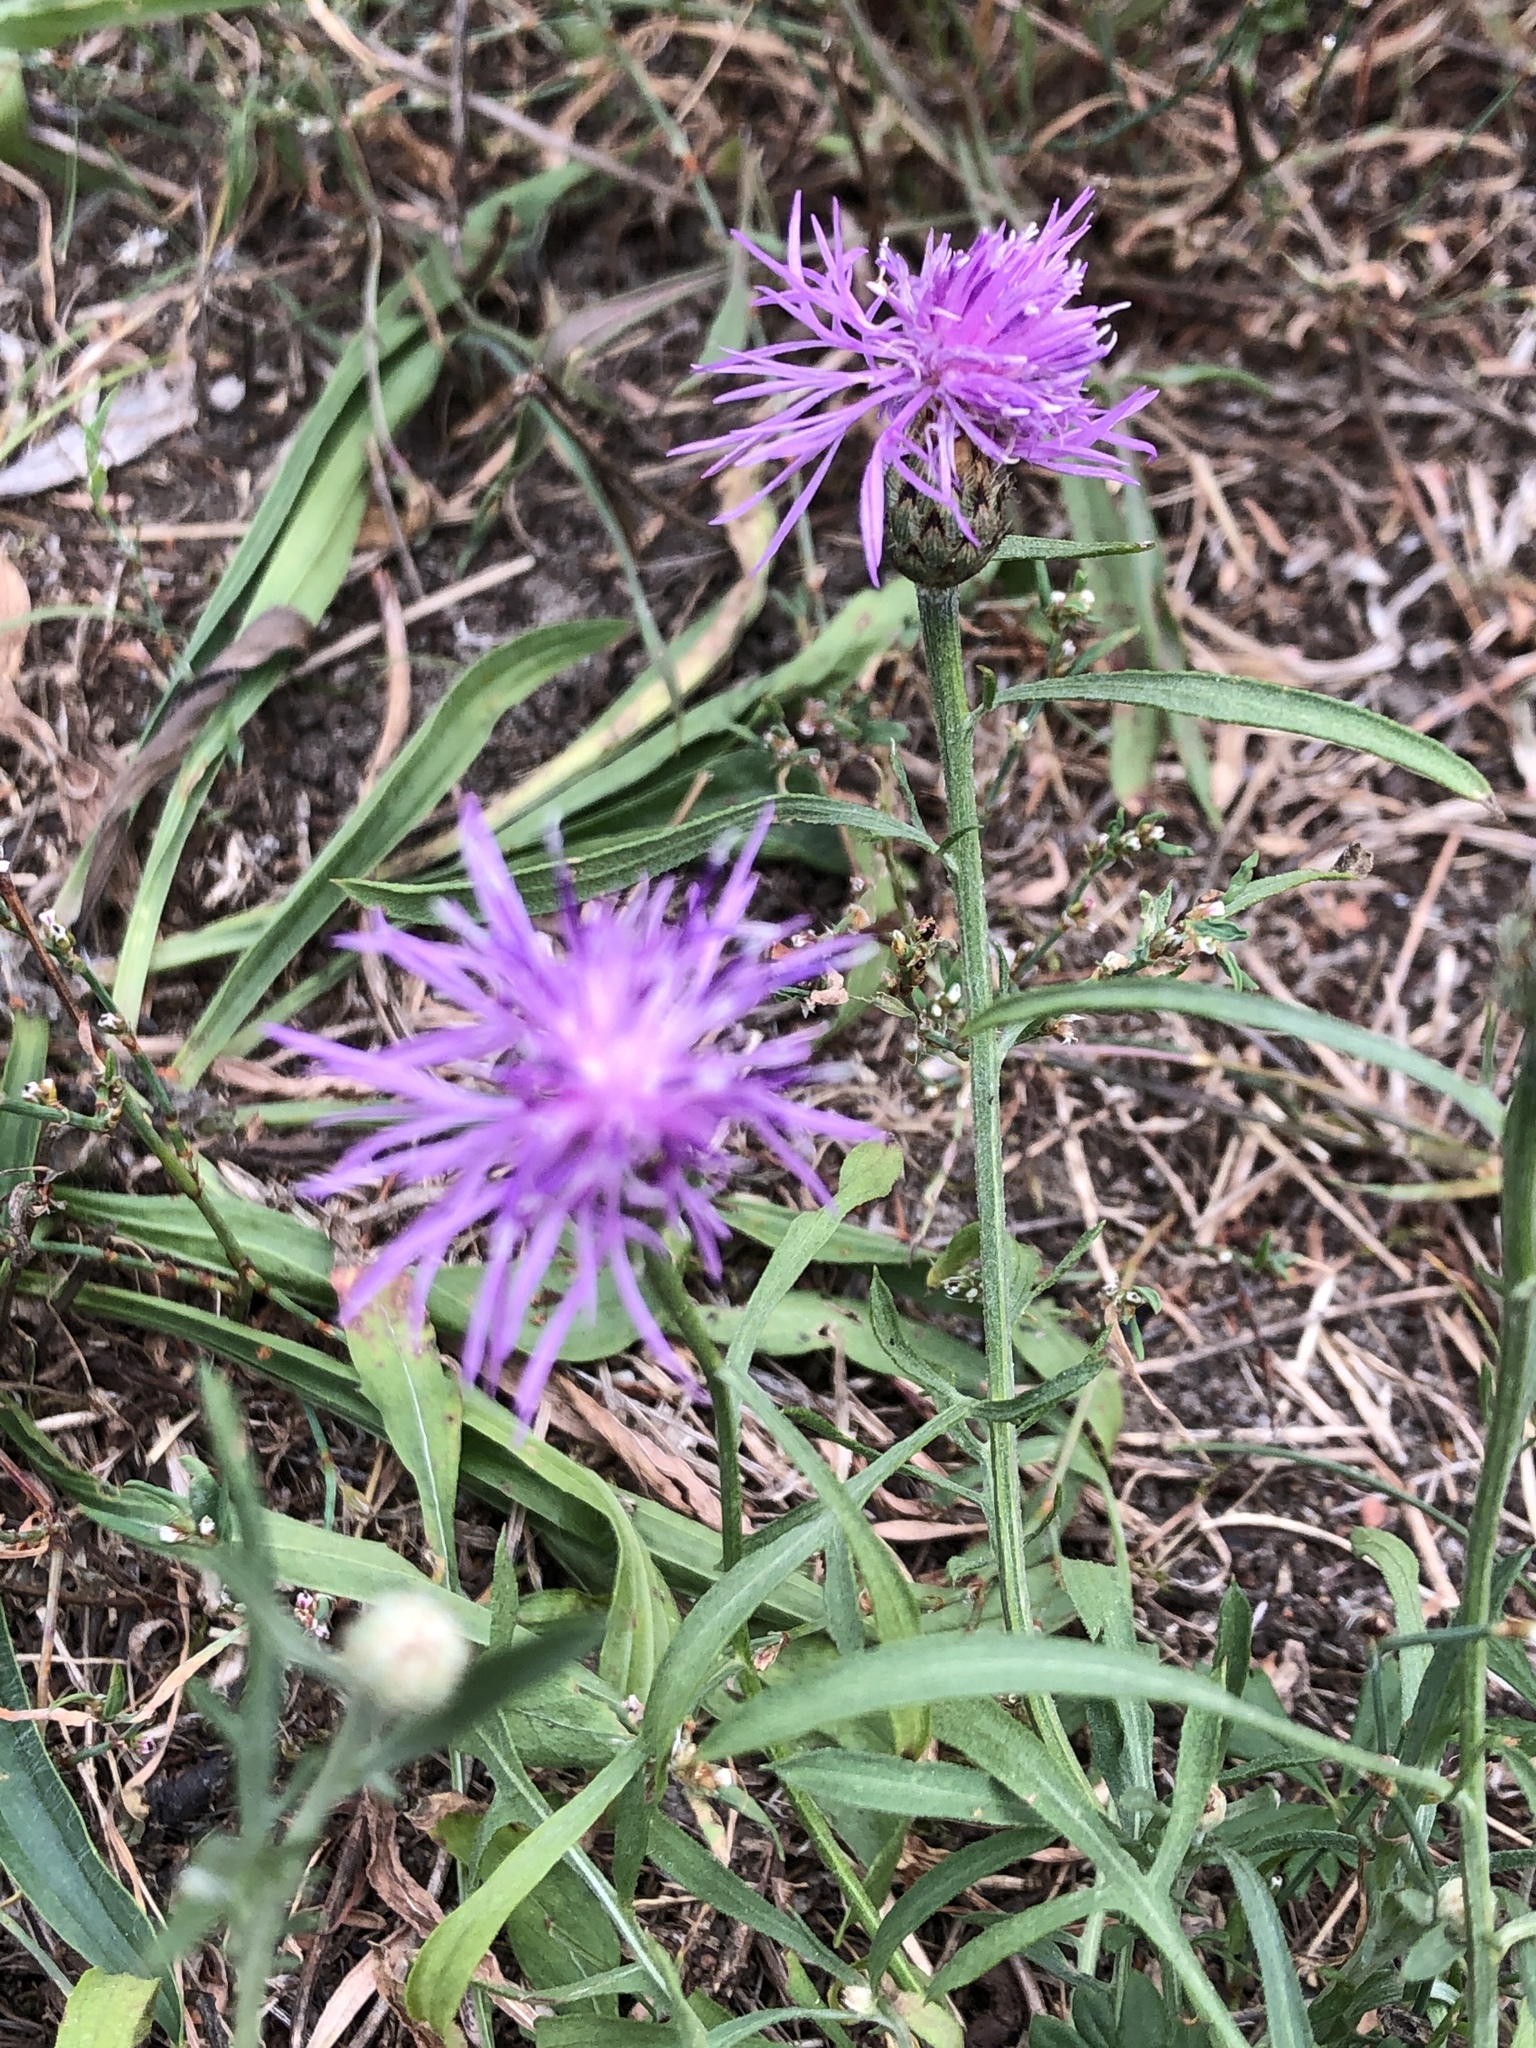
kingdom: Plantae
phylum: Tracheophyta
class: Magnoliopsida
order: Asterales
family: Asteraceae
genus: Centaurea
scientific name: Centaurea jacea
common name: Brown knapweed
